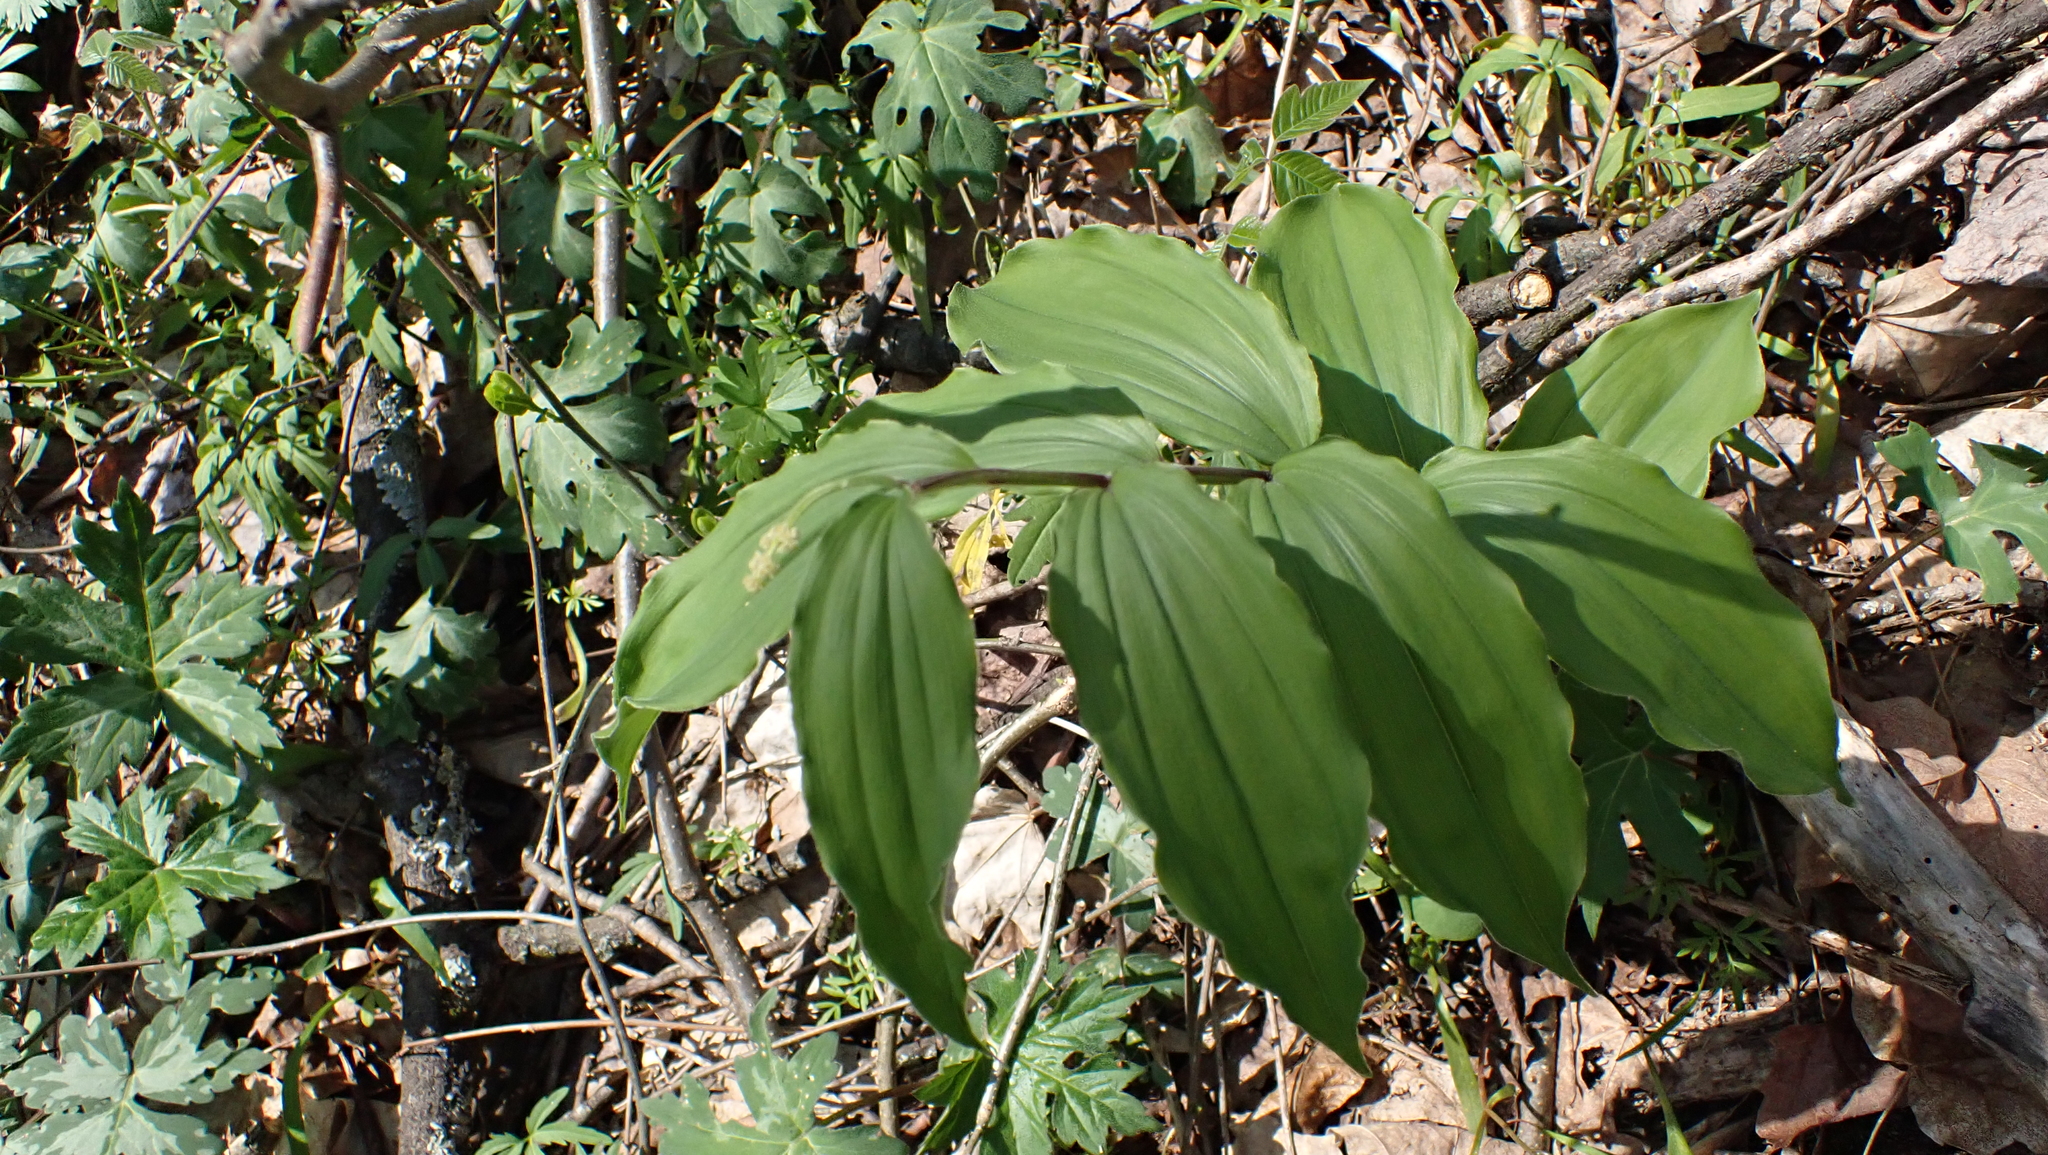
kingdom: Plantae
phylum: Tracheophyta
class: Liliopsida
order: Asparagales
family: Asparagaceae
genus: Maianthemum
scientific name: Maianthemum racemosum
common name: False spikenard
